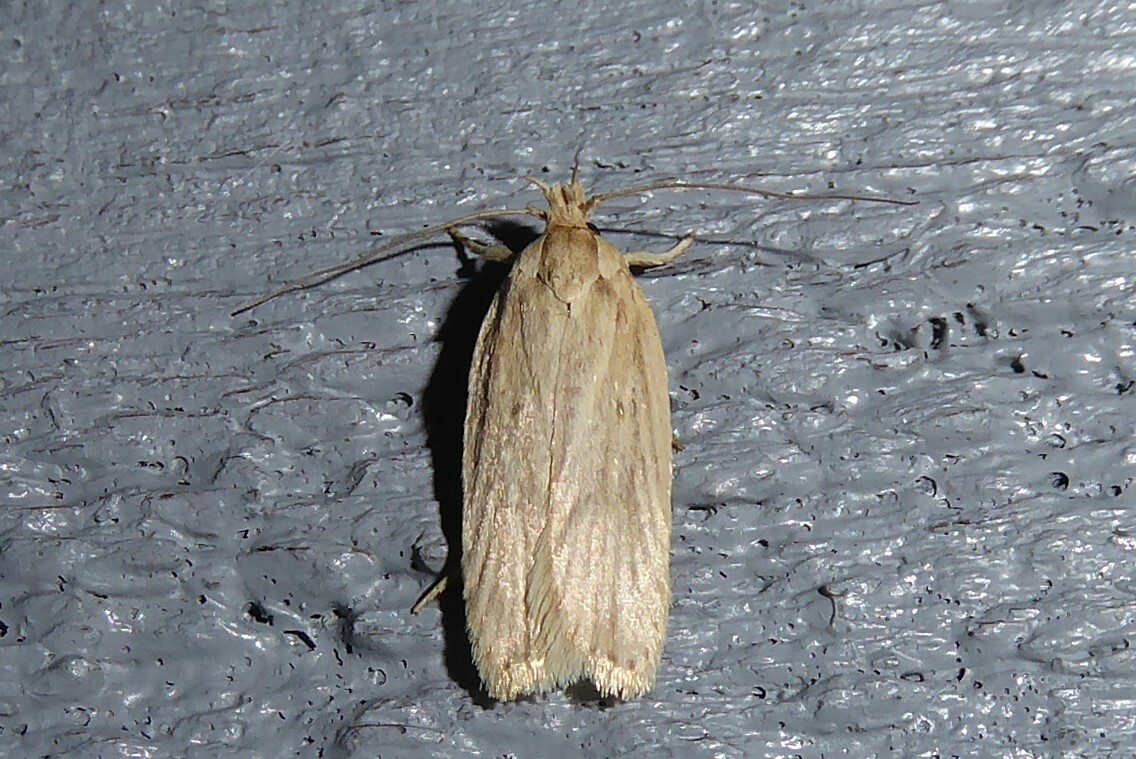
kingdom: Animalia
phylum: Arthropoda
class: Insecta
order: Lepidoptera
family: Depressariidae
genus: Agonopterix
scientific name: Agonopterix
